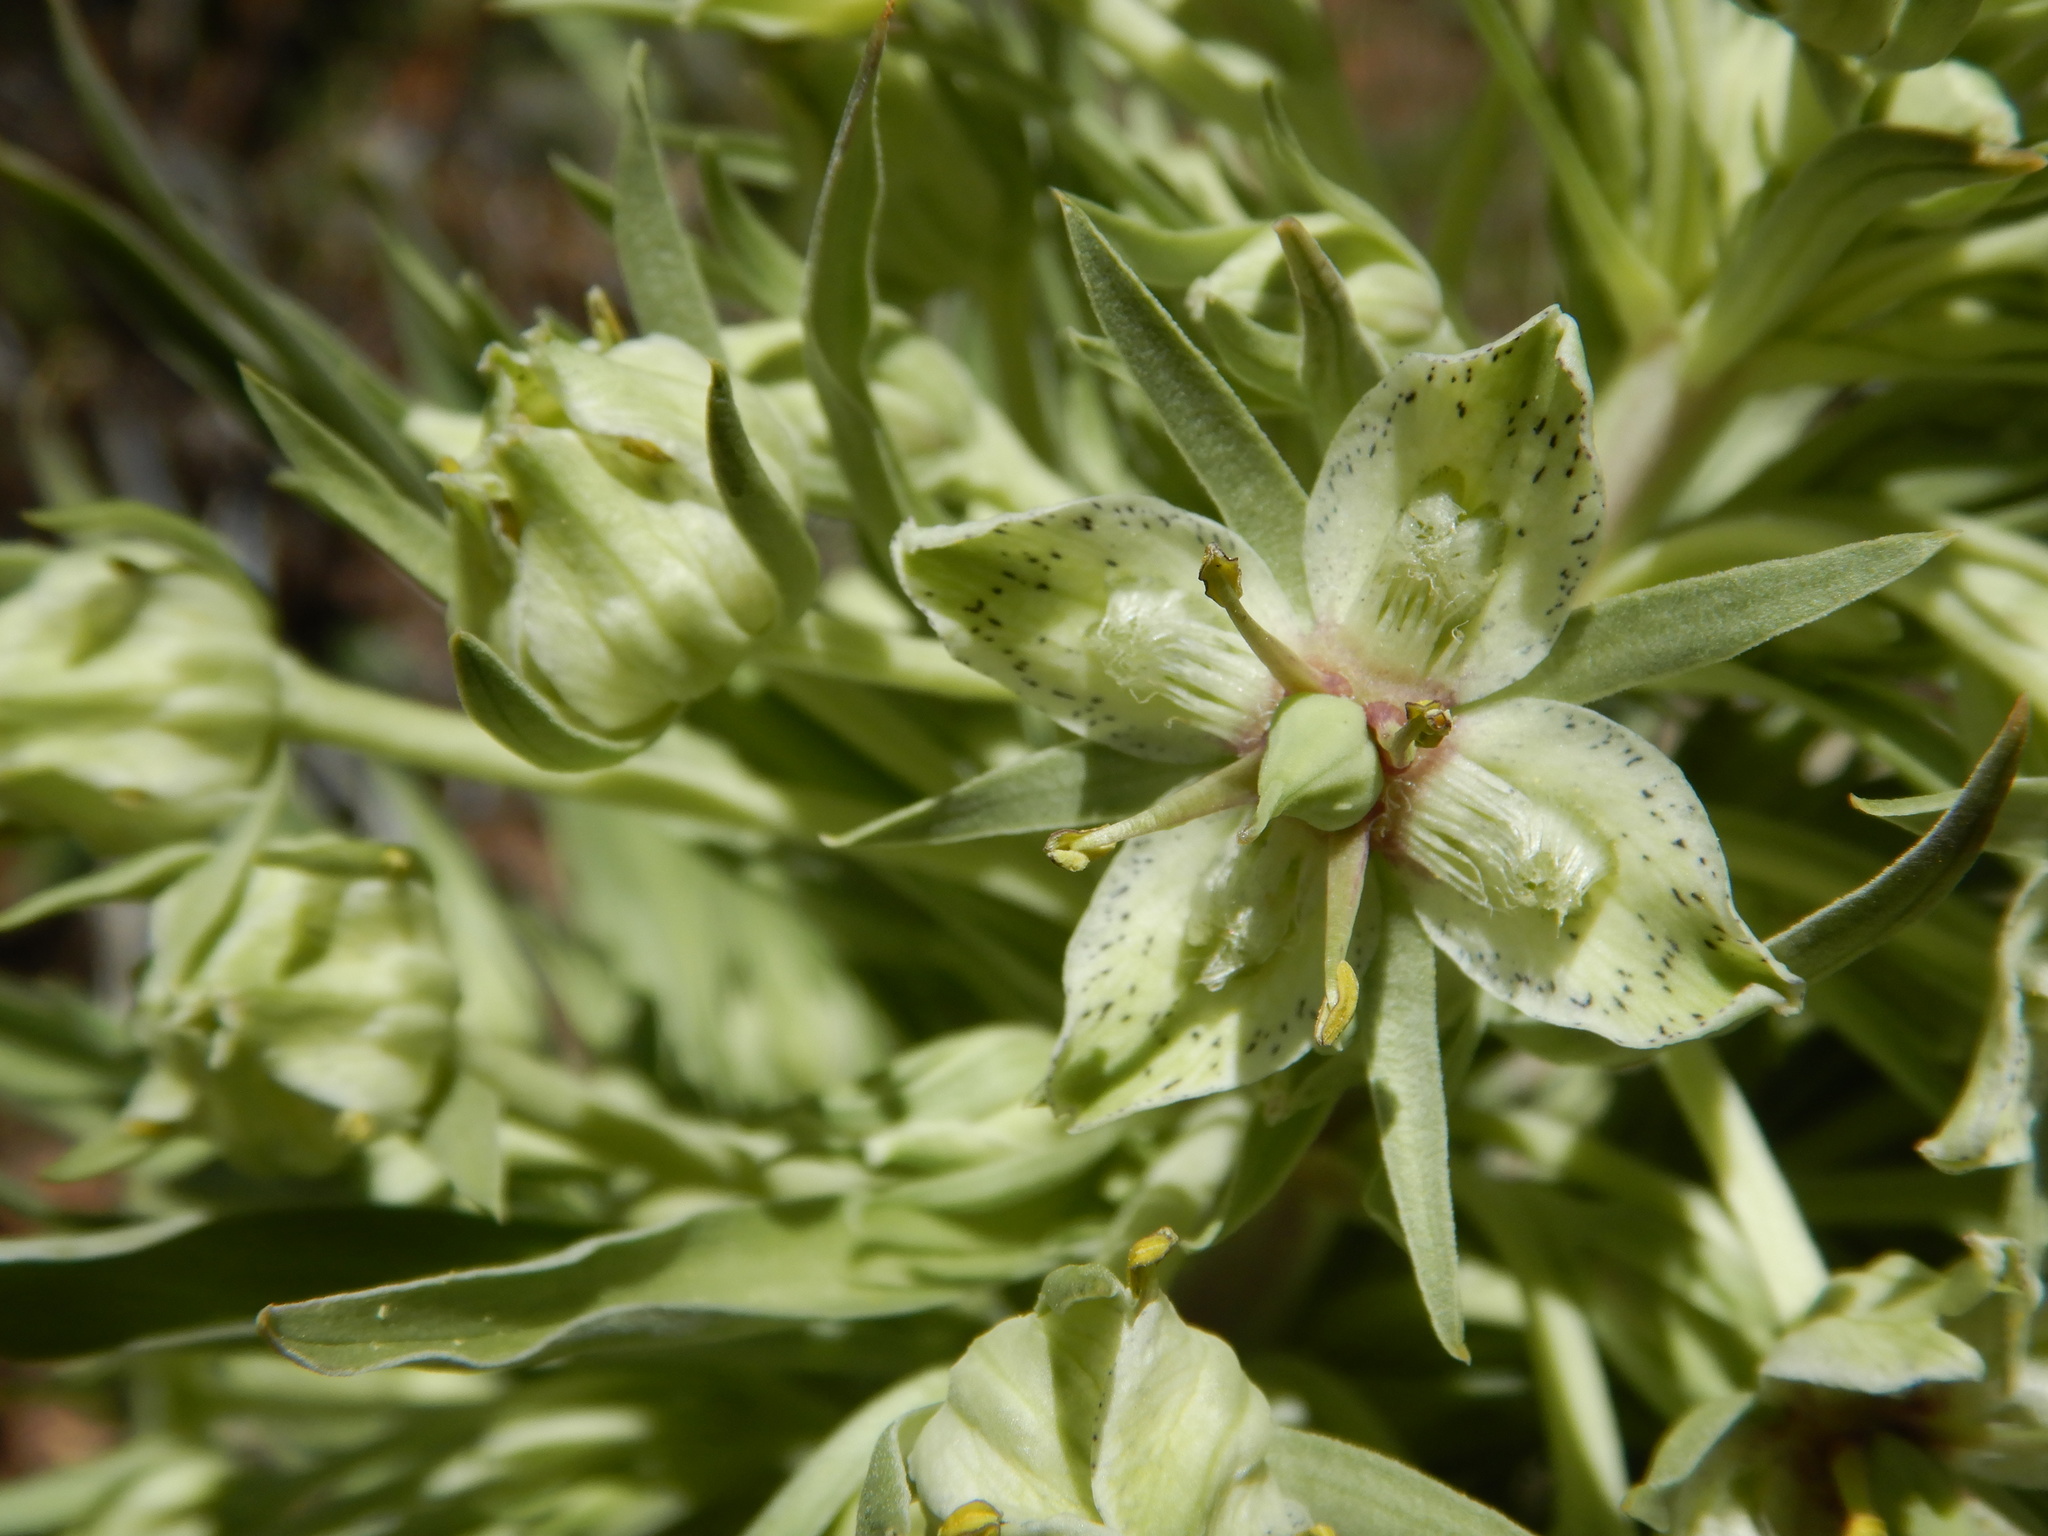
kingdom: Plantae
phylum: Tracheophyta
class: Magnoliopsida
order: Gentianales
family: Gentianaceae
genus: Frasera
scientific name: Frasera speciosa
